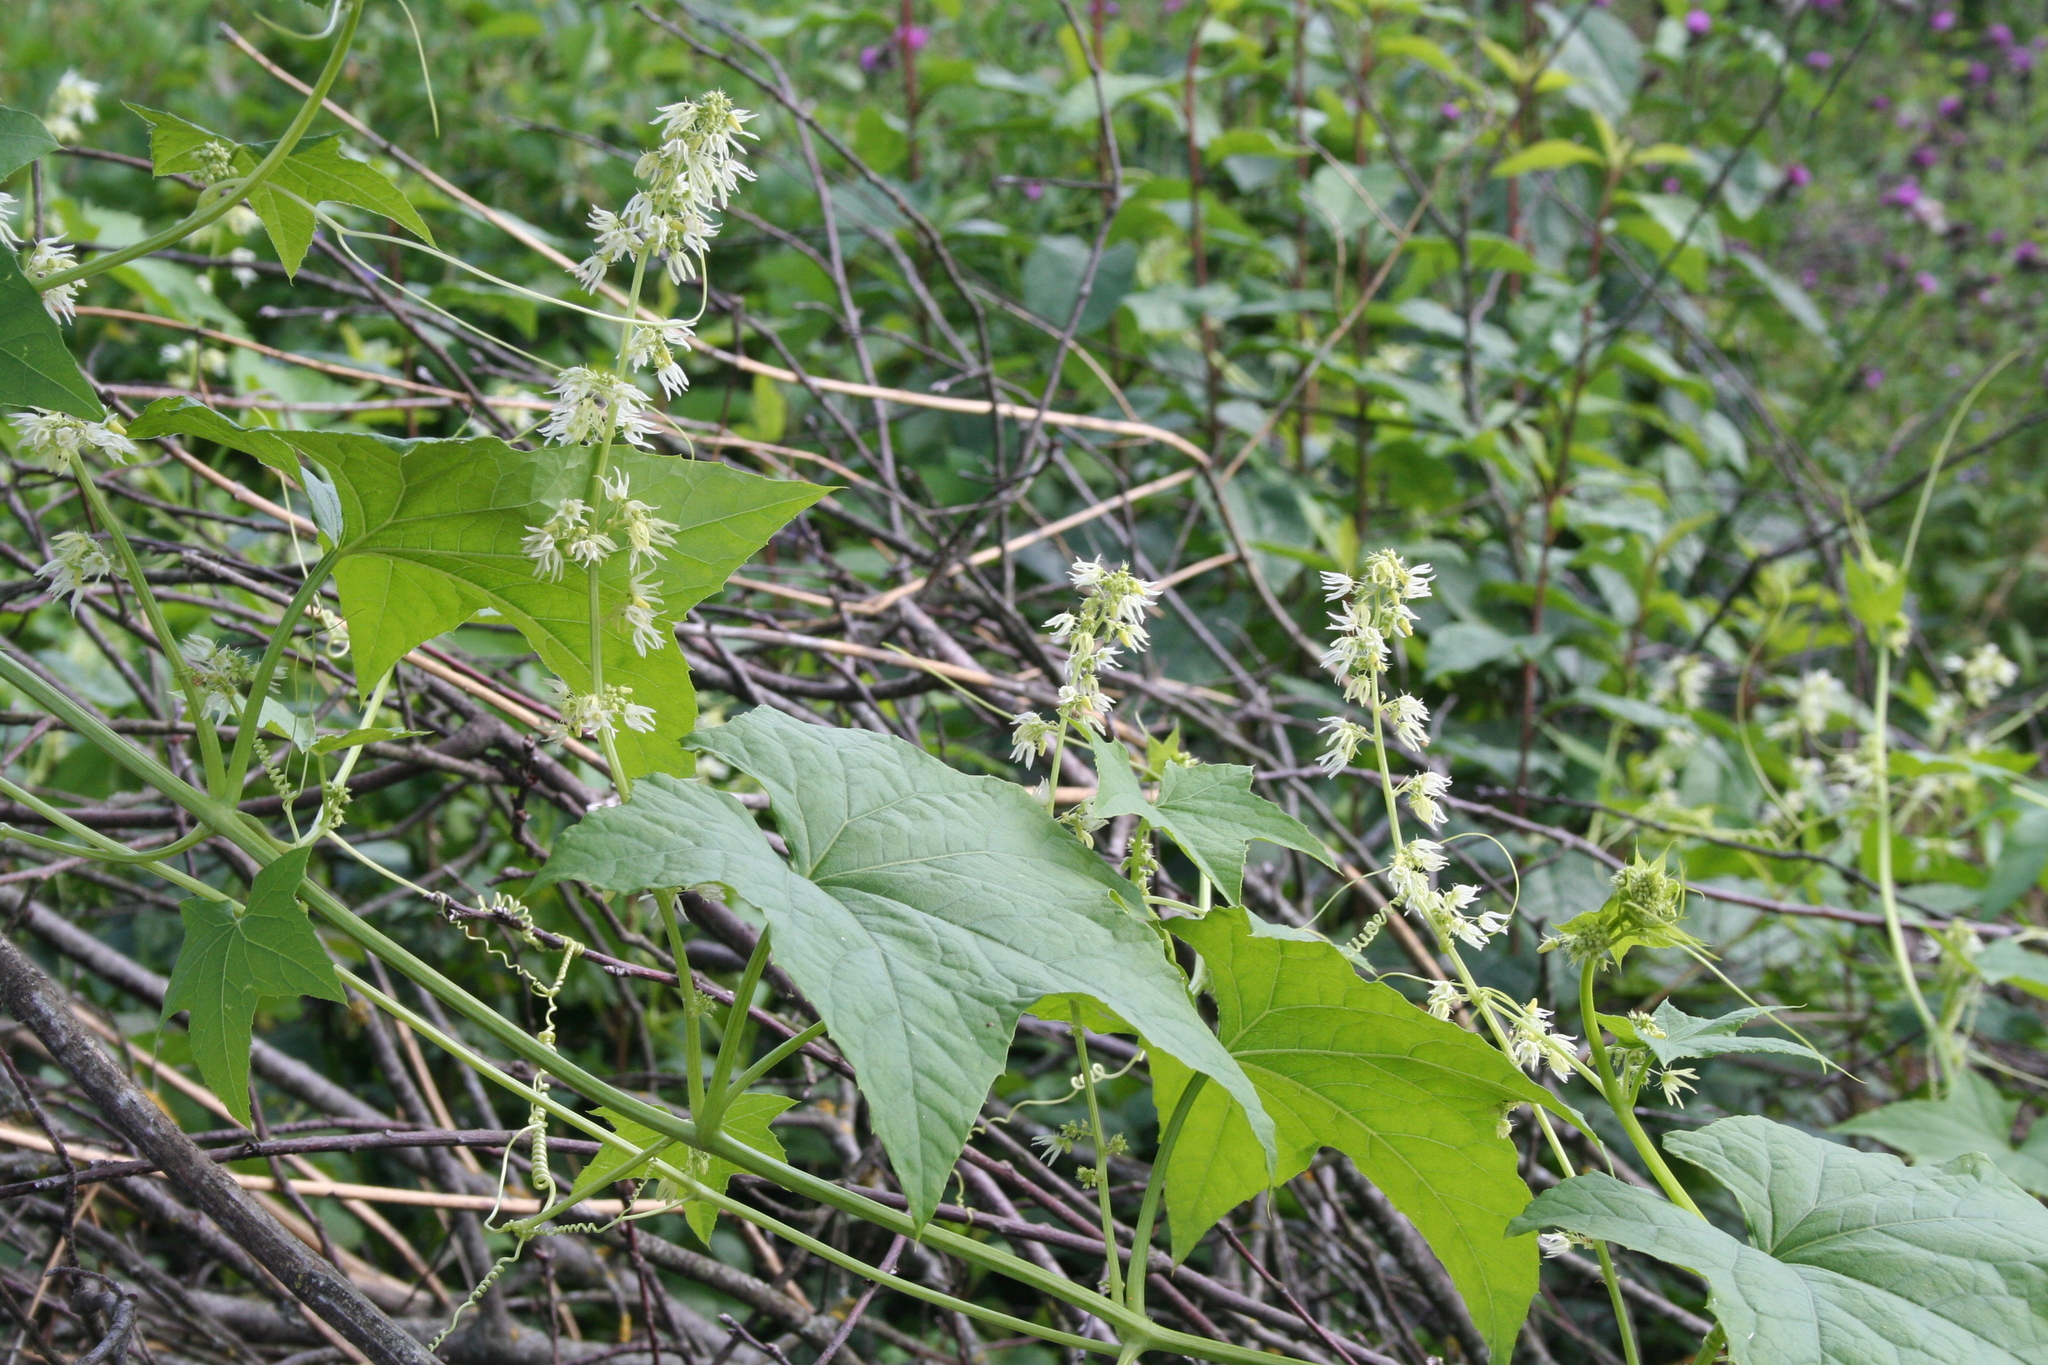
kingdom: Plantae
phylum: Tracheophyta
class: Magnoliopsida
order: Cucurbitales
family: Cucurbitaceae
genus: Echinocystis
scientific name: Echinocystis lobata
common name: Wild cucumber
